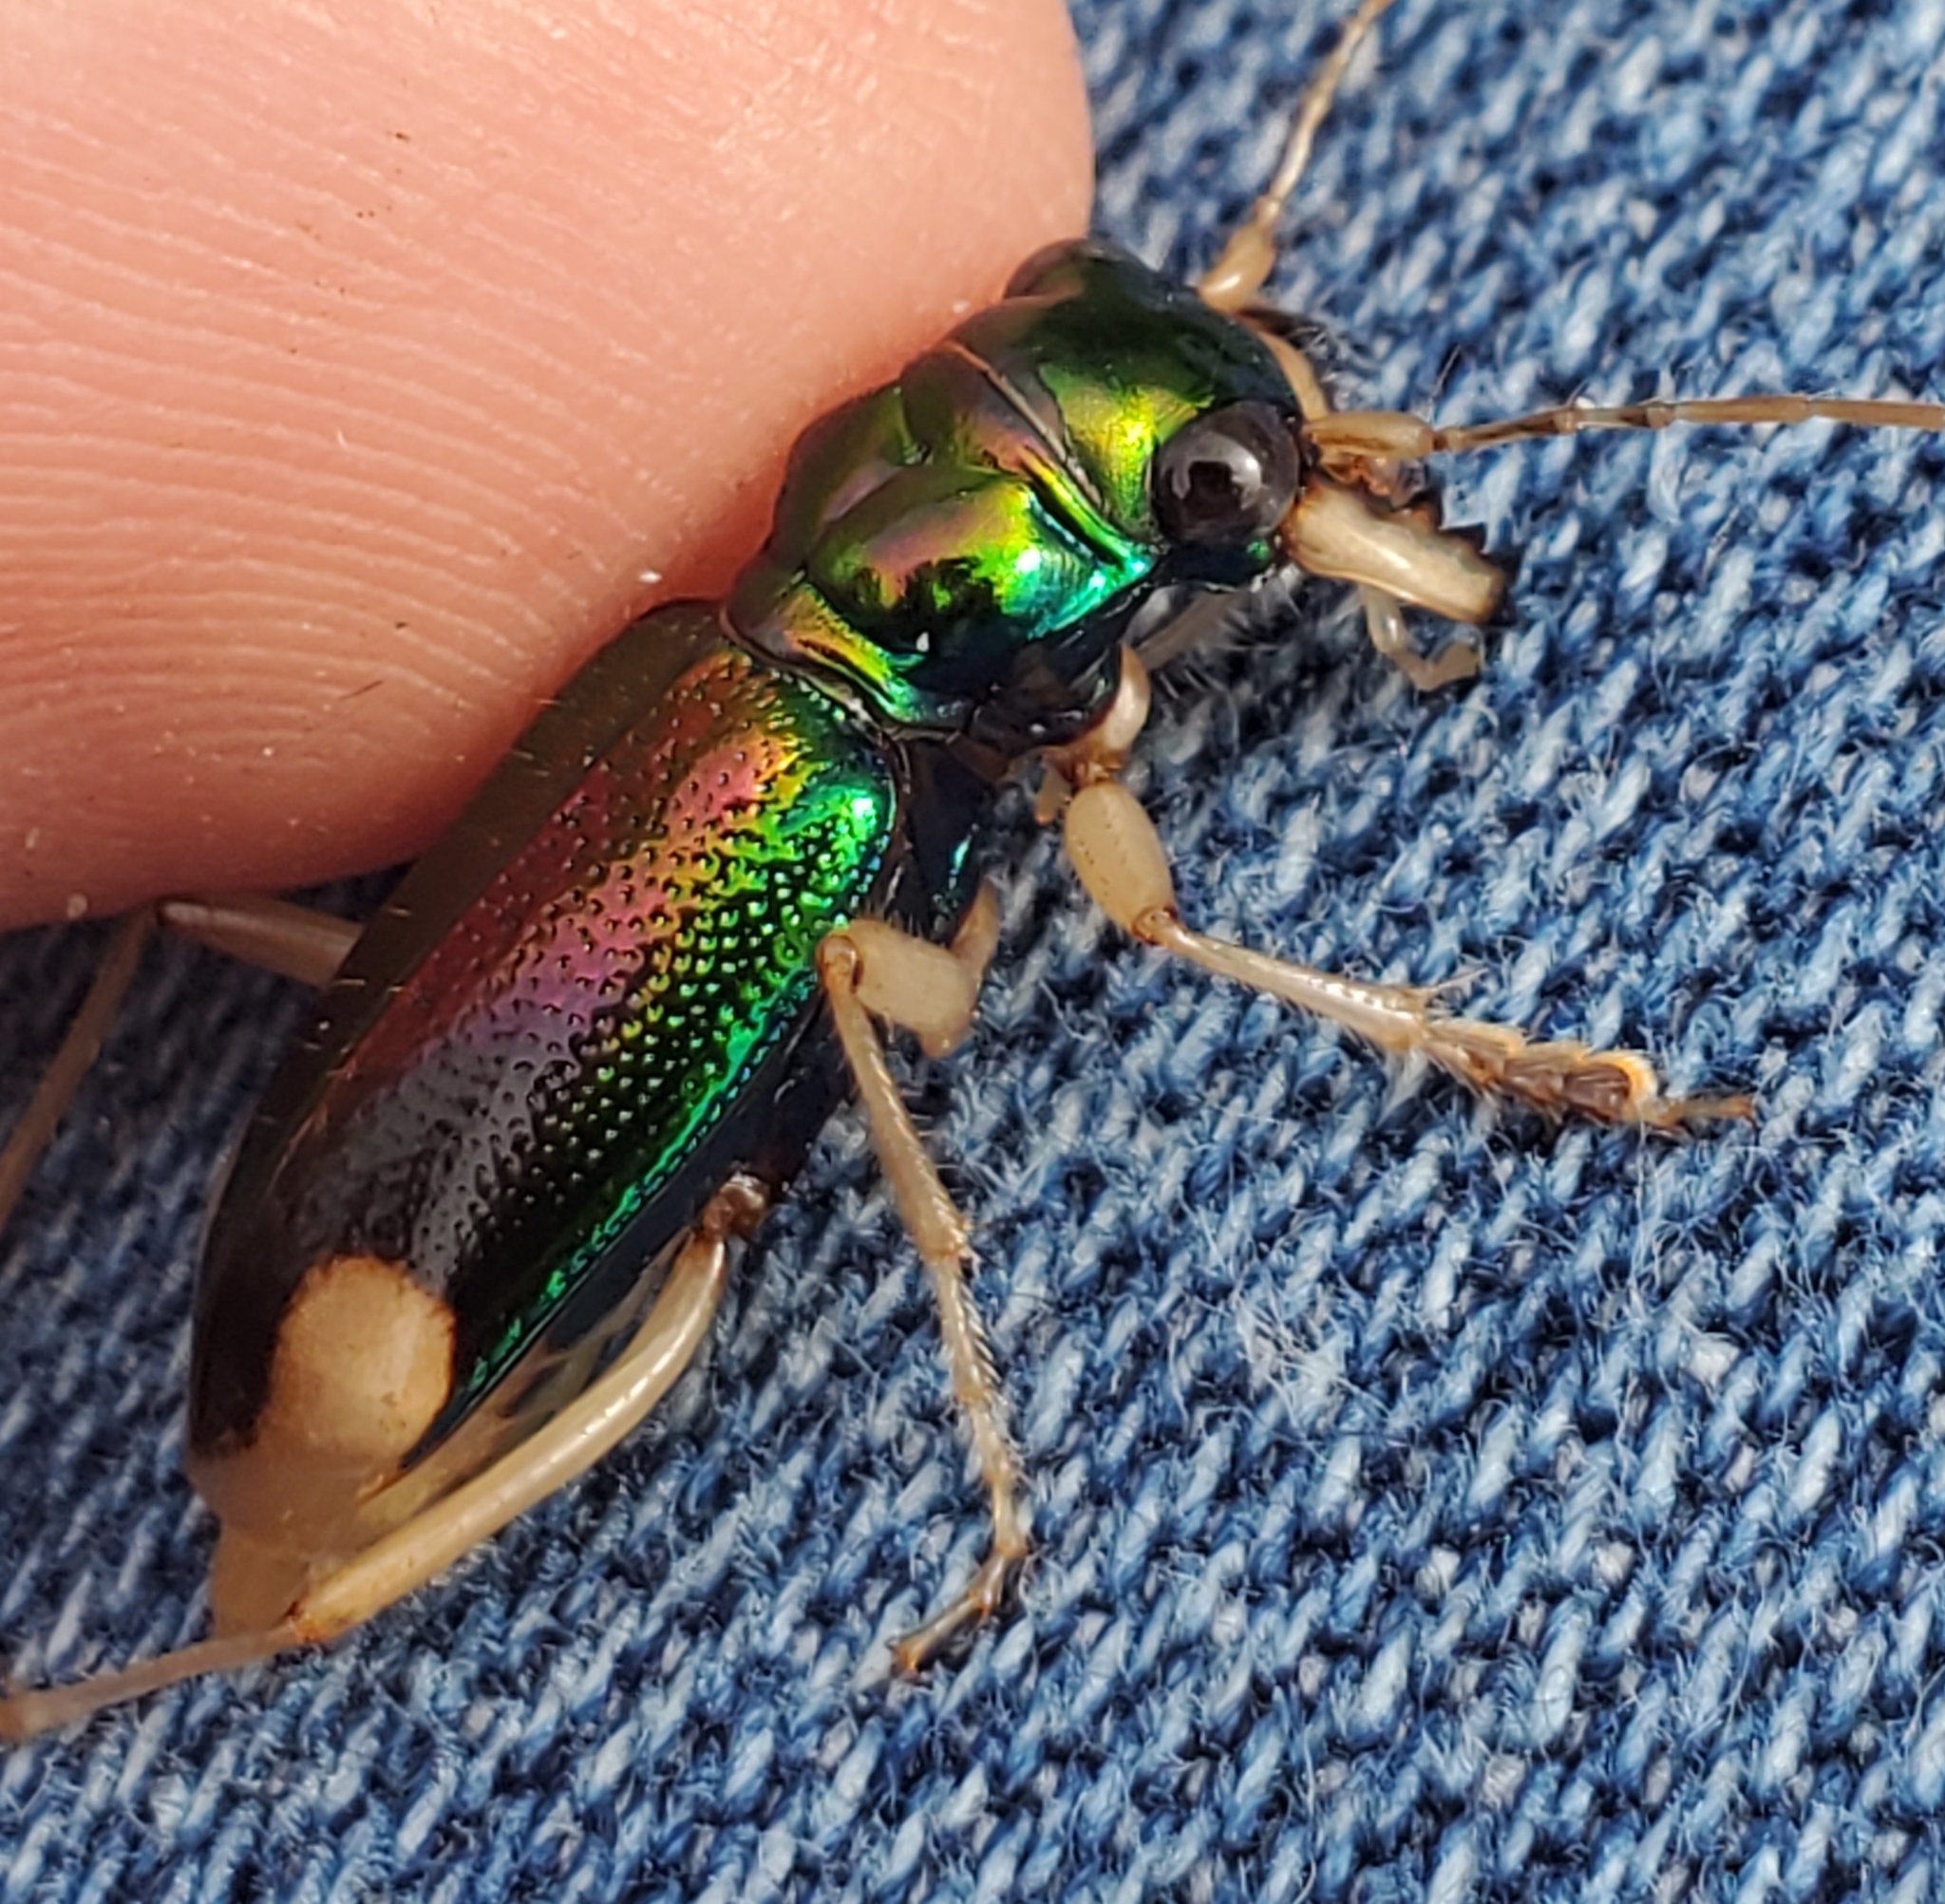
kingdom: Animalia
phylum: Arthropoda
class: Insecta
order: Coleoptera
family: Carabidae
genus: Tetracha
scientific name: Tetracha carolina
